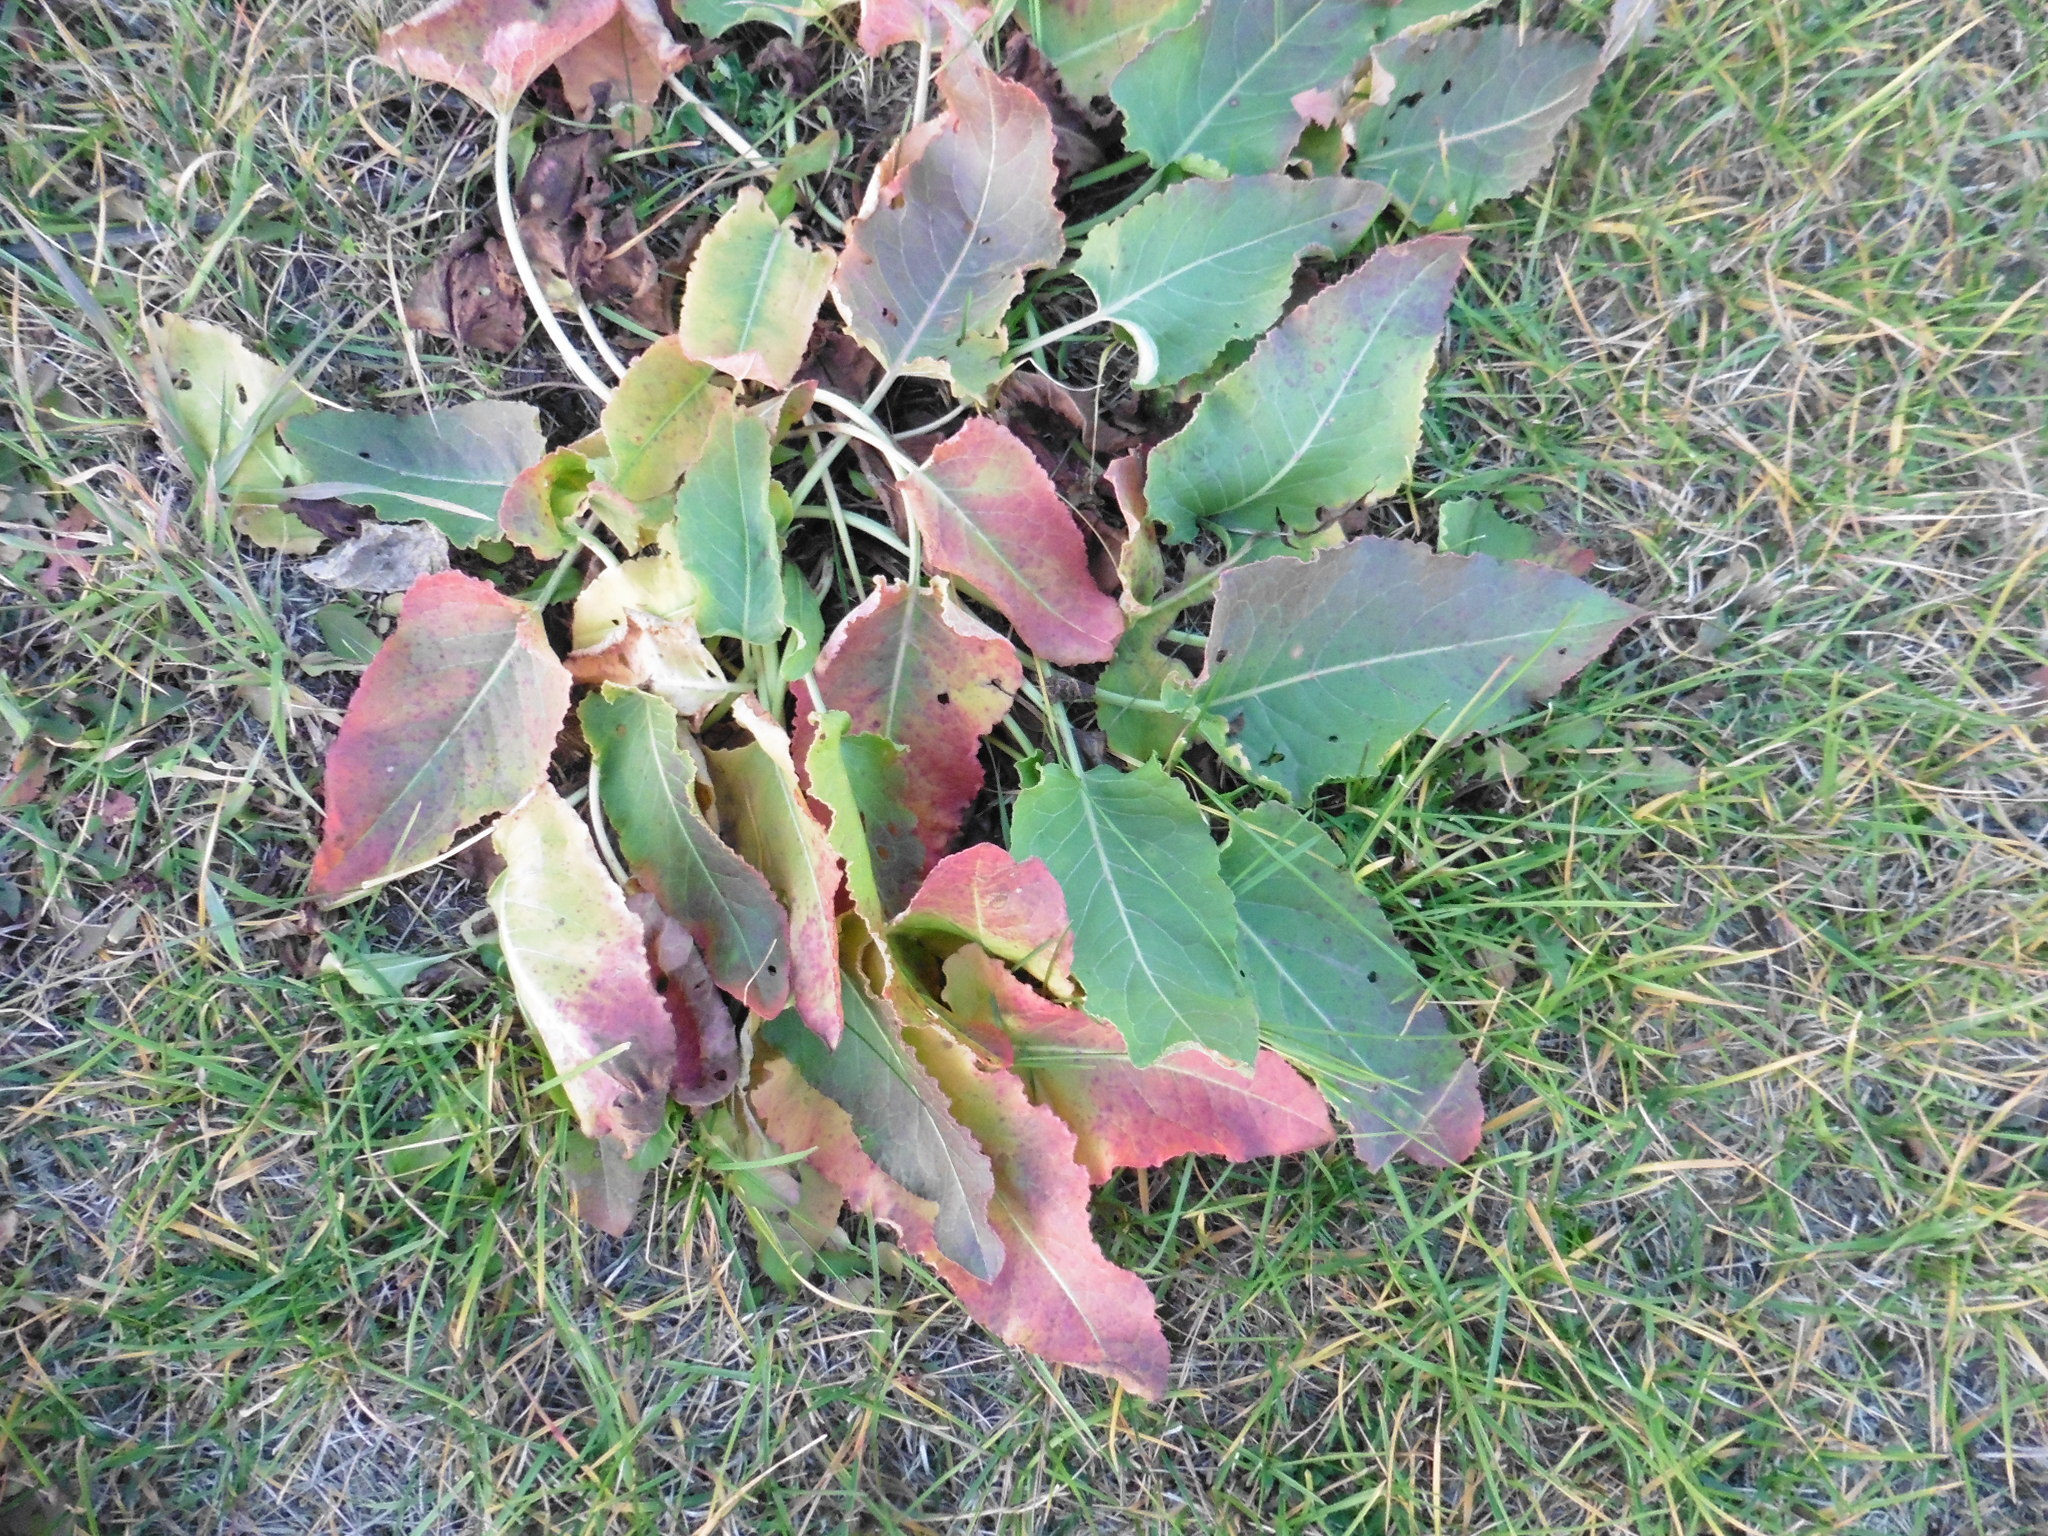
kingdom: Plantae
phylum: Tracheophyta
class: Magnoliopsida
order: Caryophyllales
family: Polygonaceae
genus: Rumex
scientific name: Rumex confertus
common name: Russian dock
